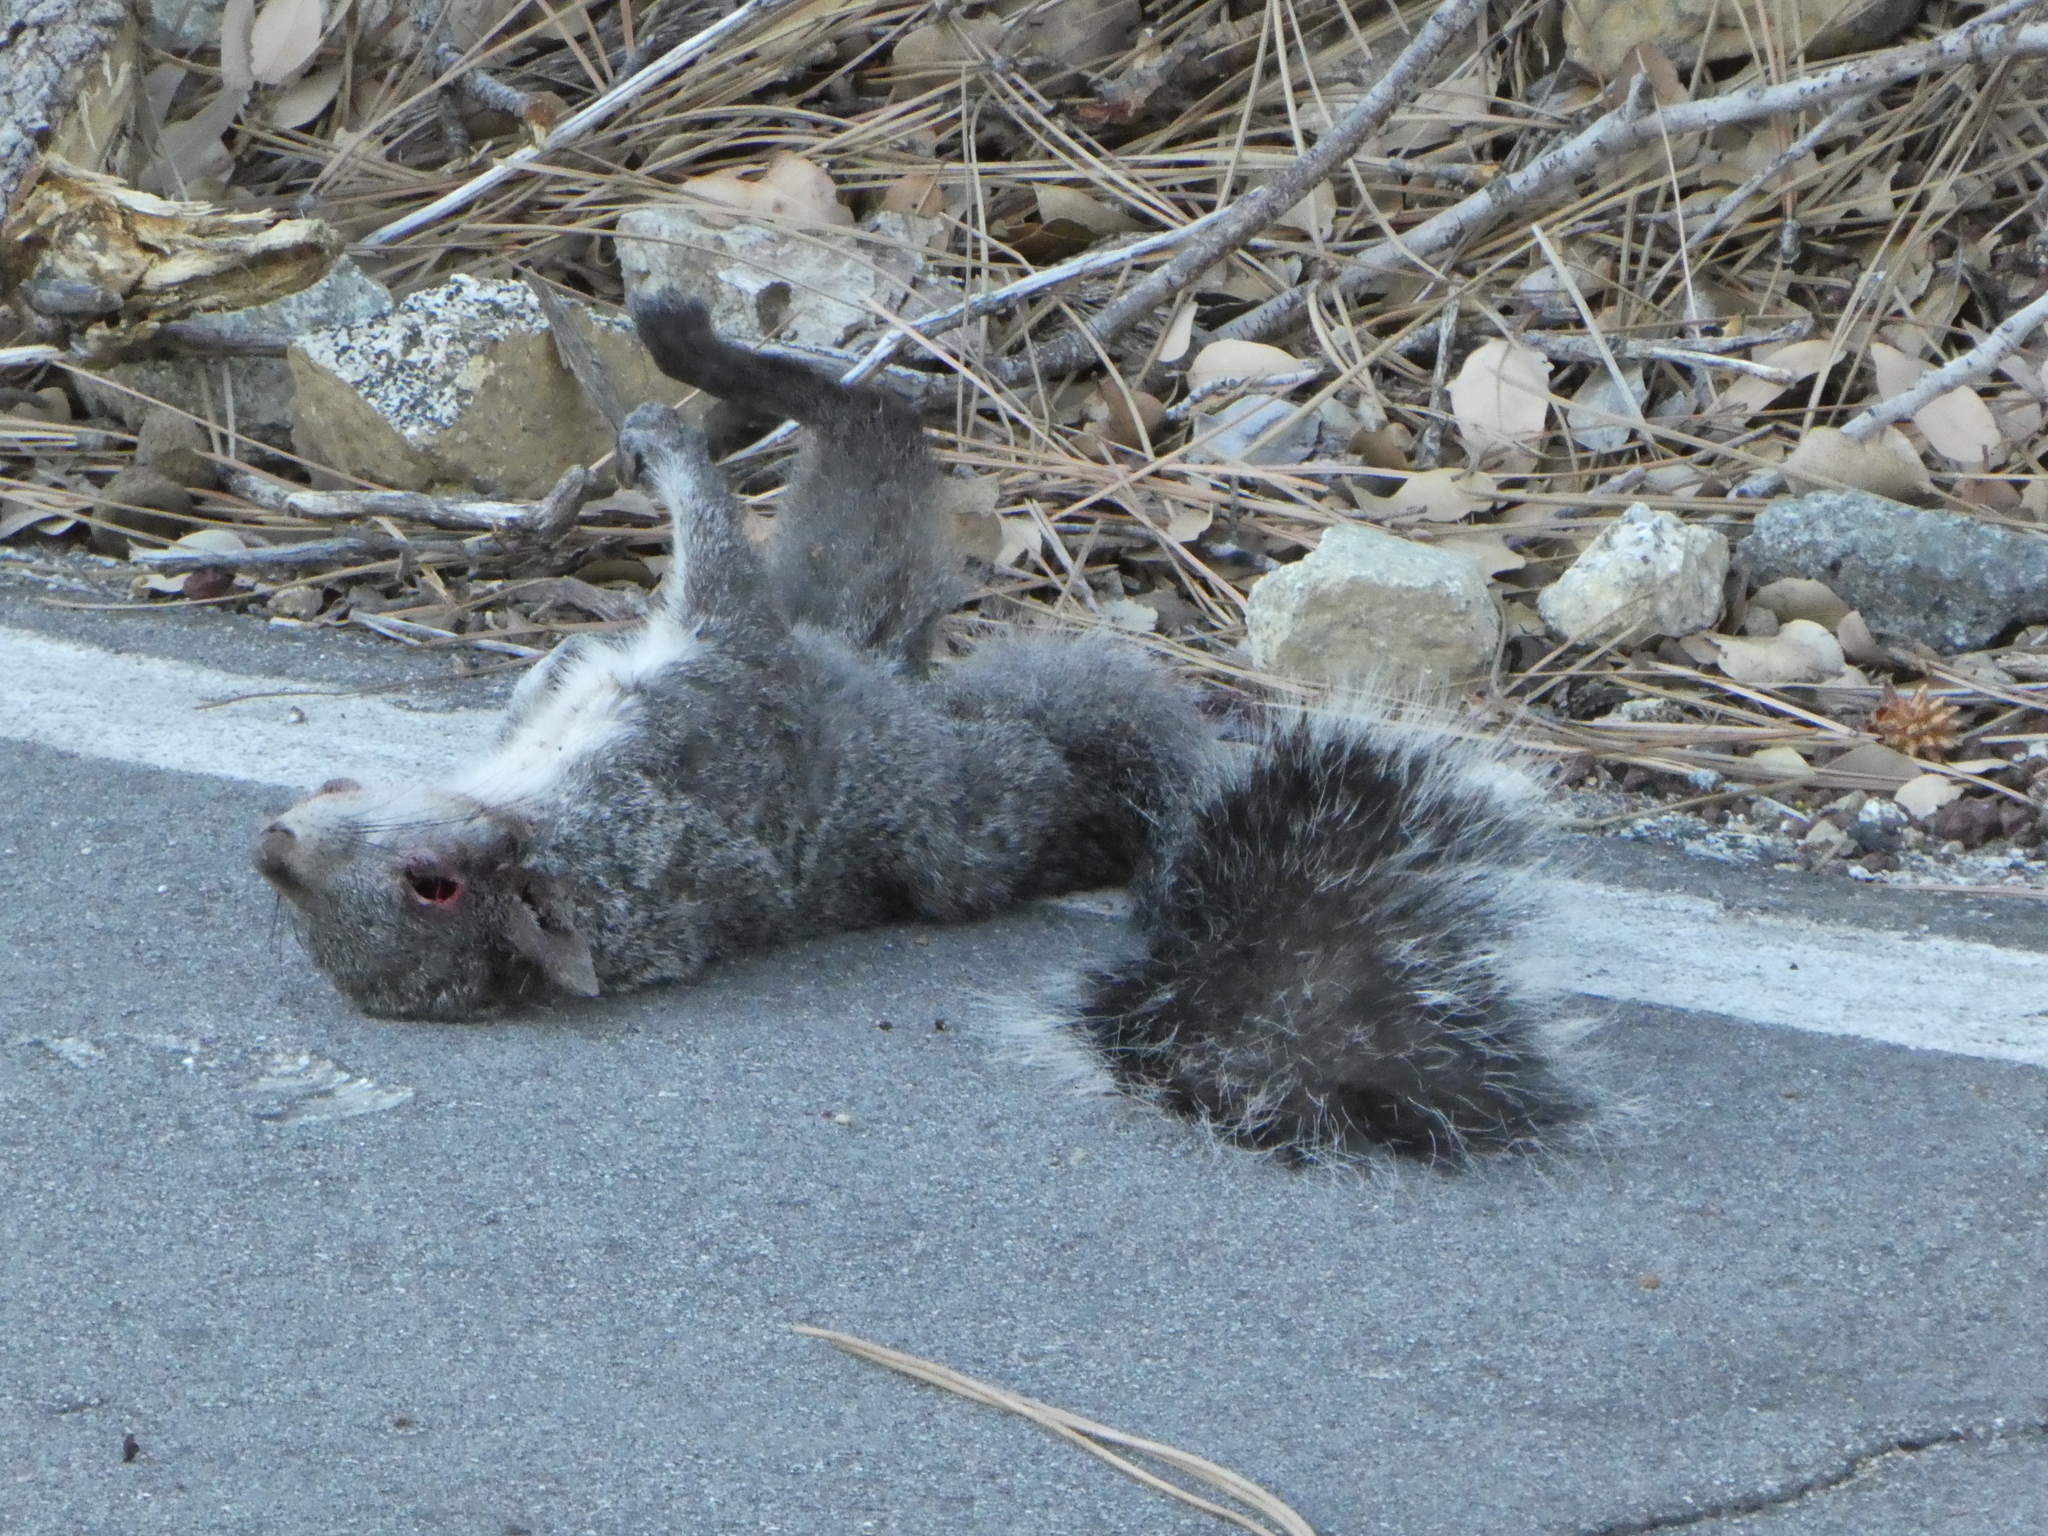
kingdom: Animalia
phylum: Chordata
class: Mammalia
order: Rodentia
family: Sciuridae
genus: Sciurus
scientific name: Sciurus griseus
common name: Western gray squirrel
